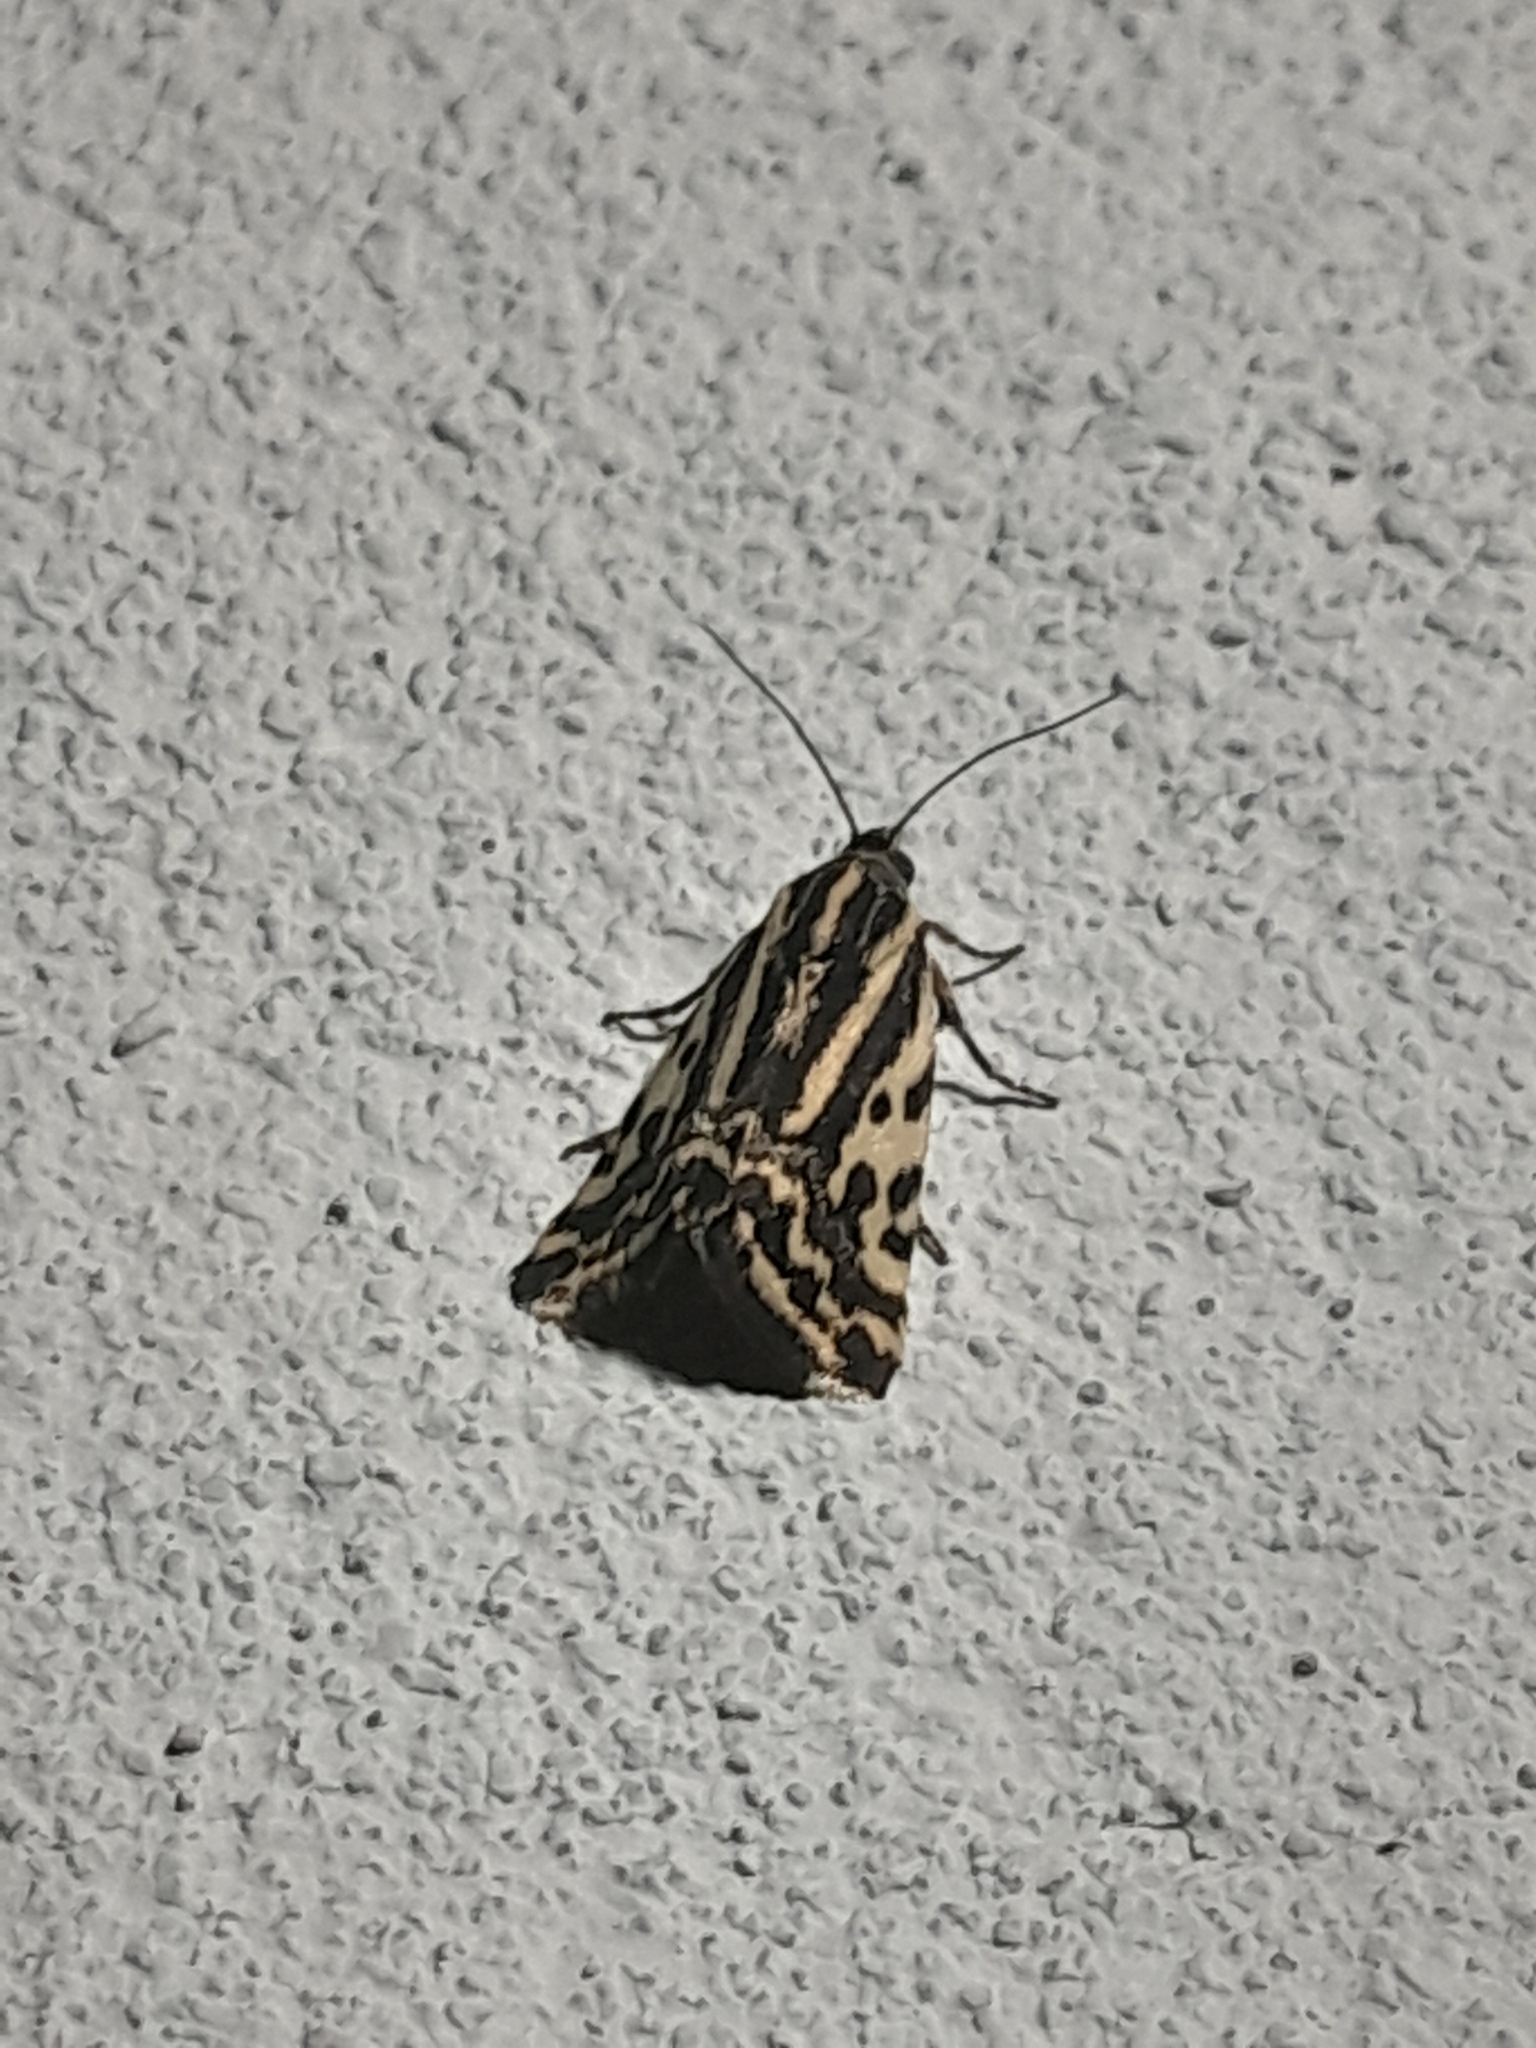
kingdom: Animalia
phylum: Arthropoda
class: Insecta
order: Lepidoptera
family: Noctuidae
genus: Acontia
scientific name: Acontia trabealis
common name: Spotted sulphur
